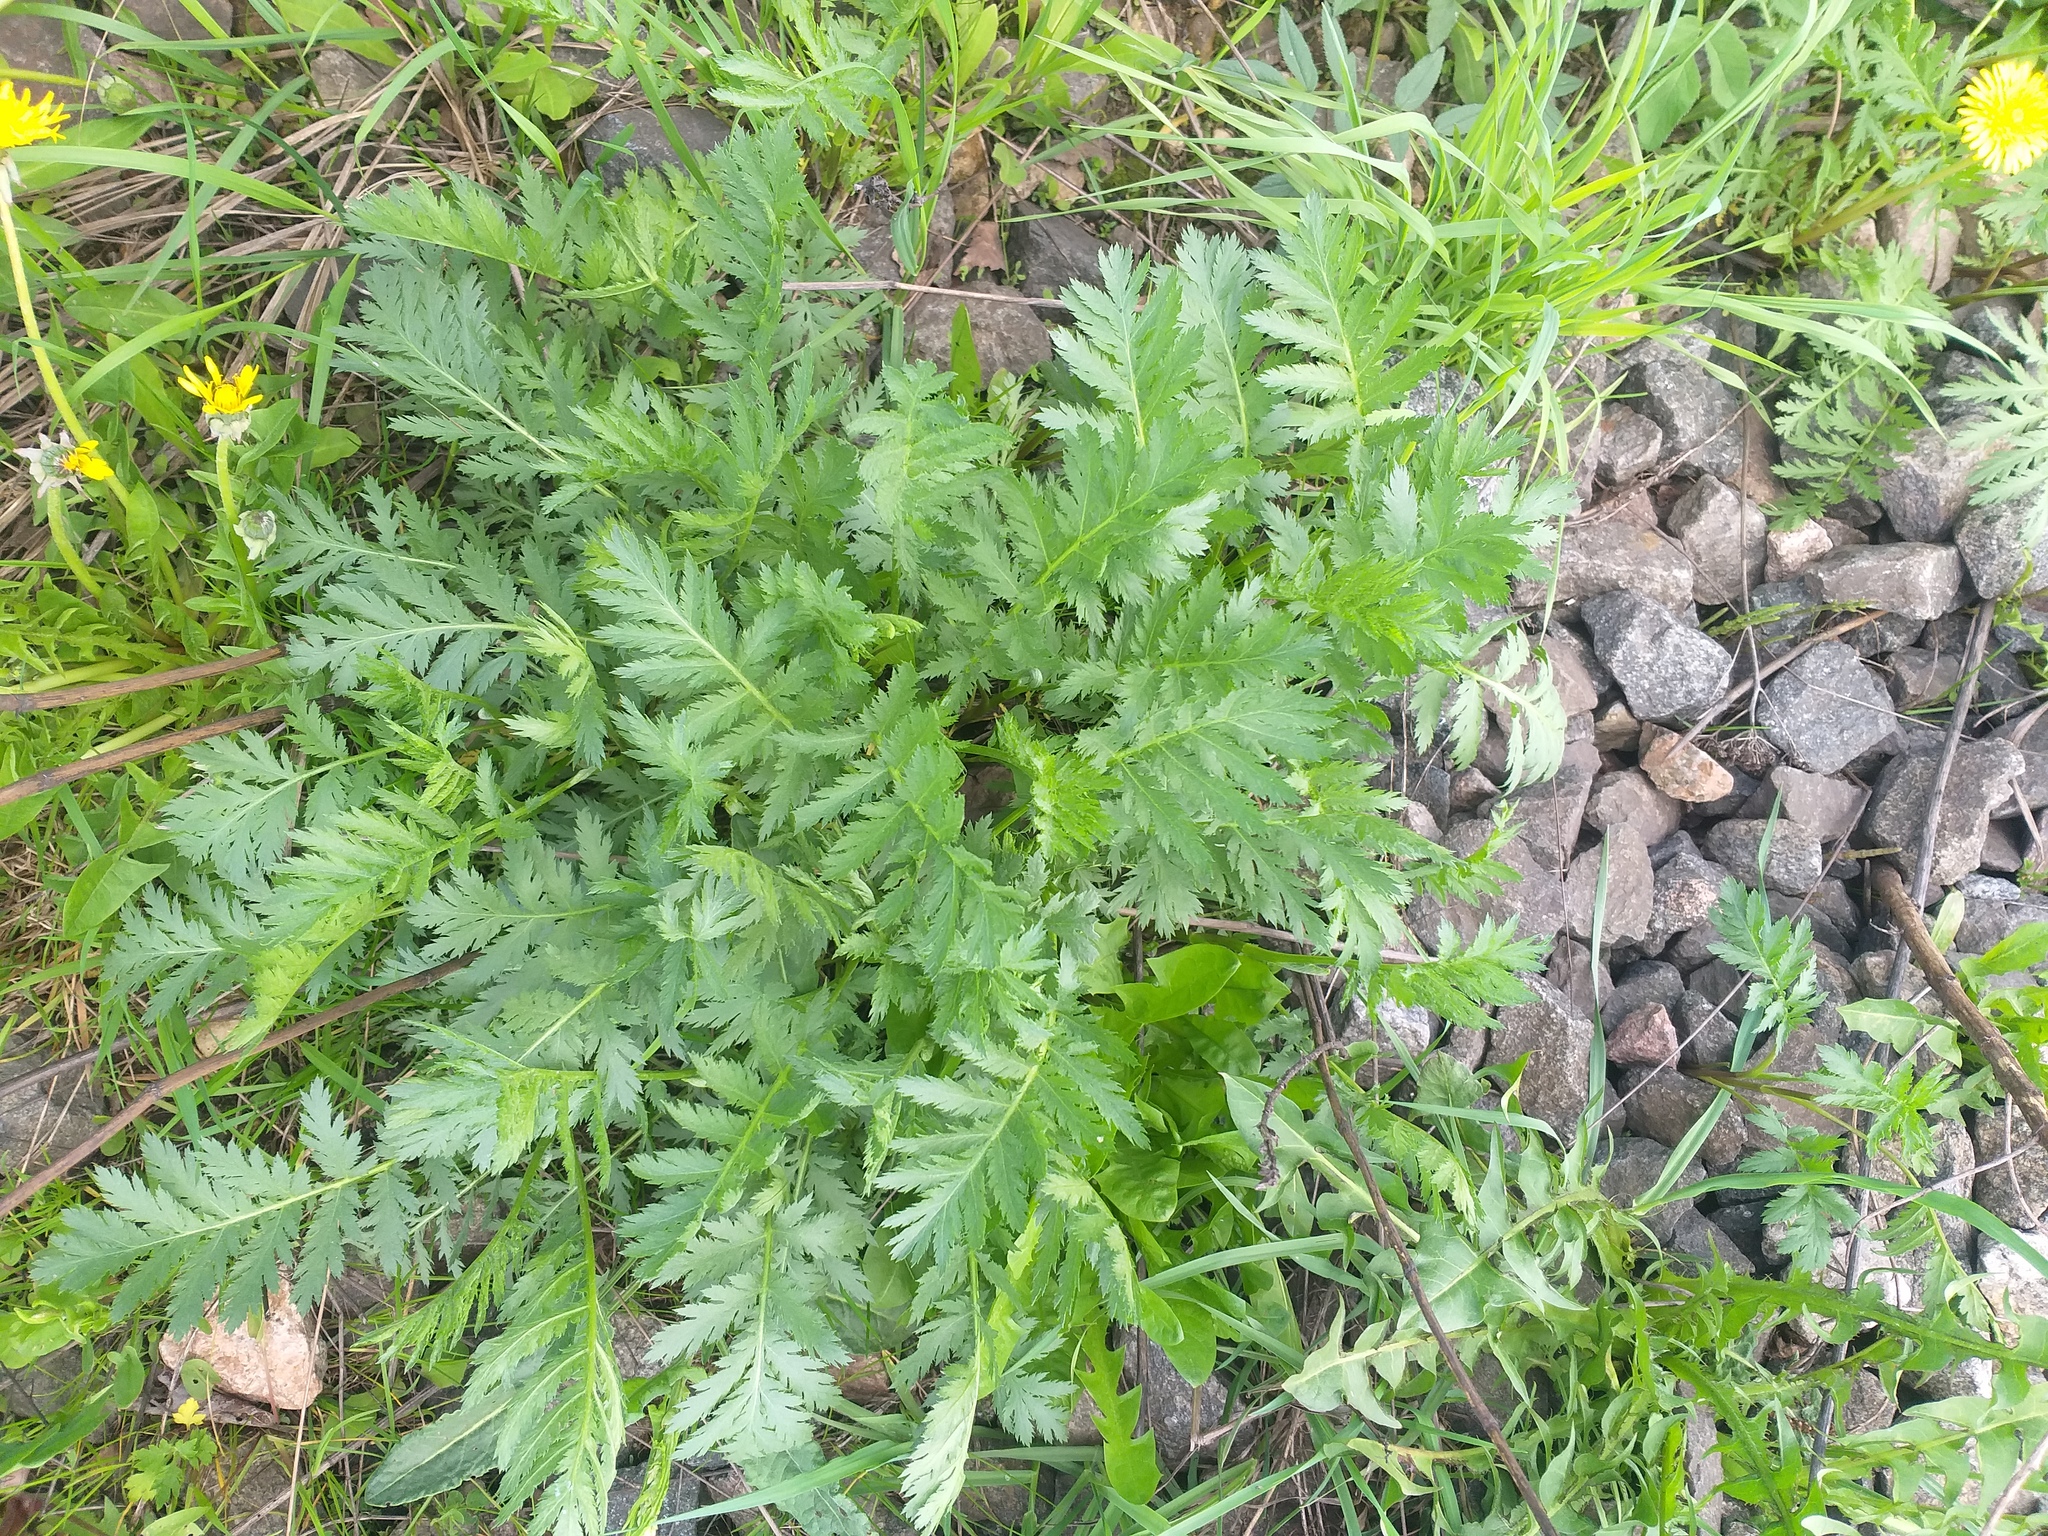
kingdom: Plantae
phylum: Tracheophyta
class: Magnoliopsida
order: Asterales
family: Asteraceae
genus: Tanacetum
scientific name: Tanacetum vulgare
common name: Common tansy
